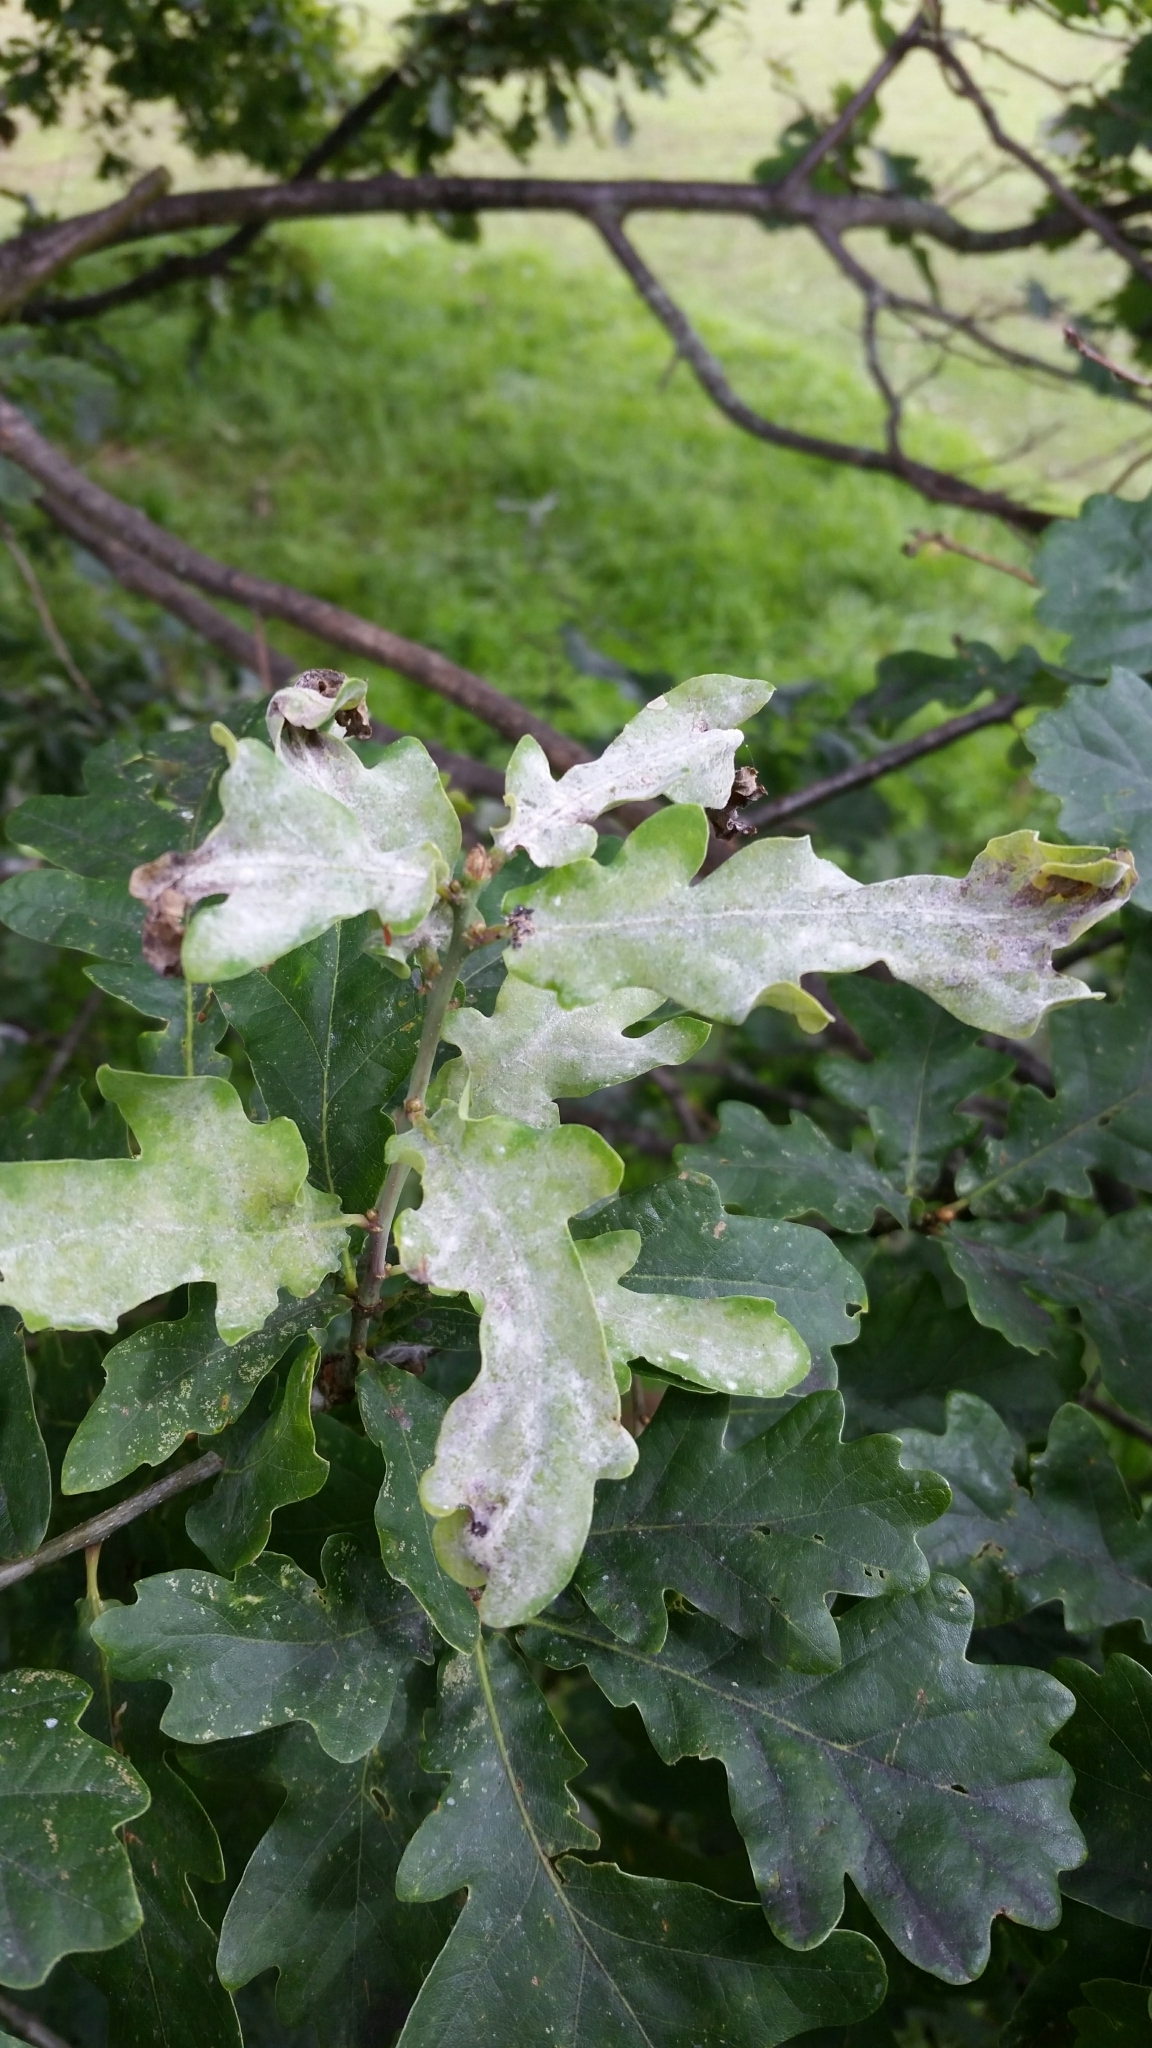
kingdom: Fungi
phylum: Ascomycota
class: Leotiomycetes
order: Helotiales
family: Erysiphaceae
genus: Erysiphe
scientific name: Erysiphe alphitoides
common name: Oak mildew
